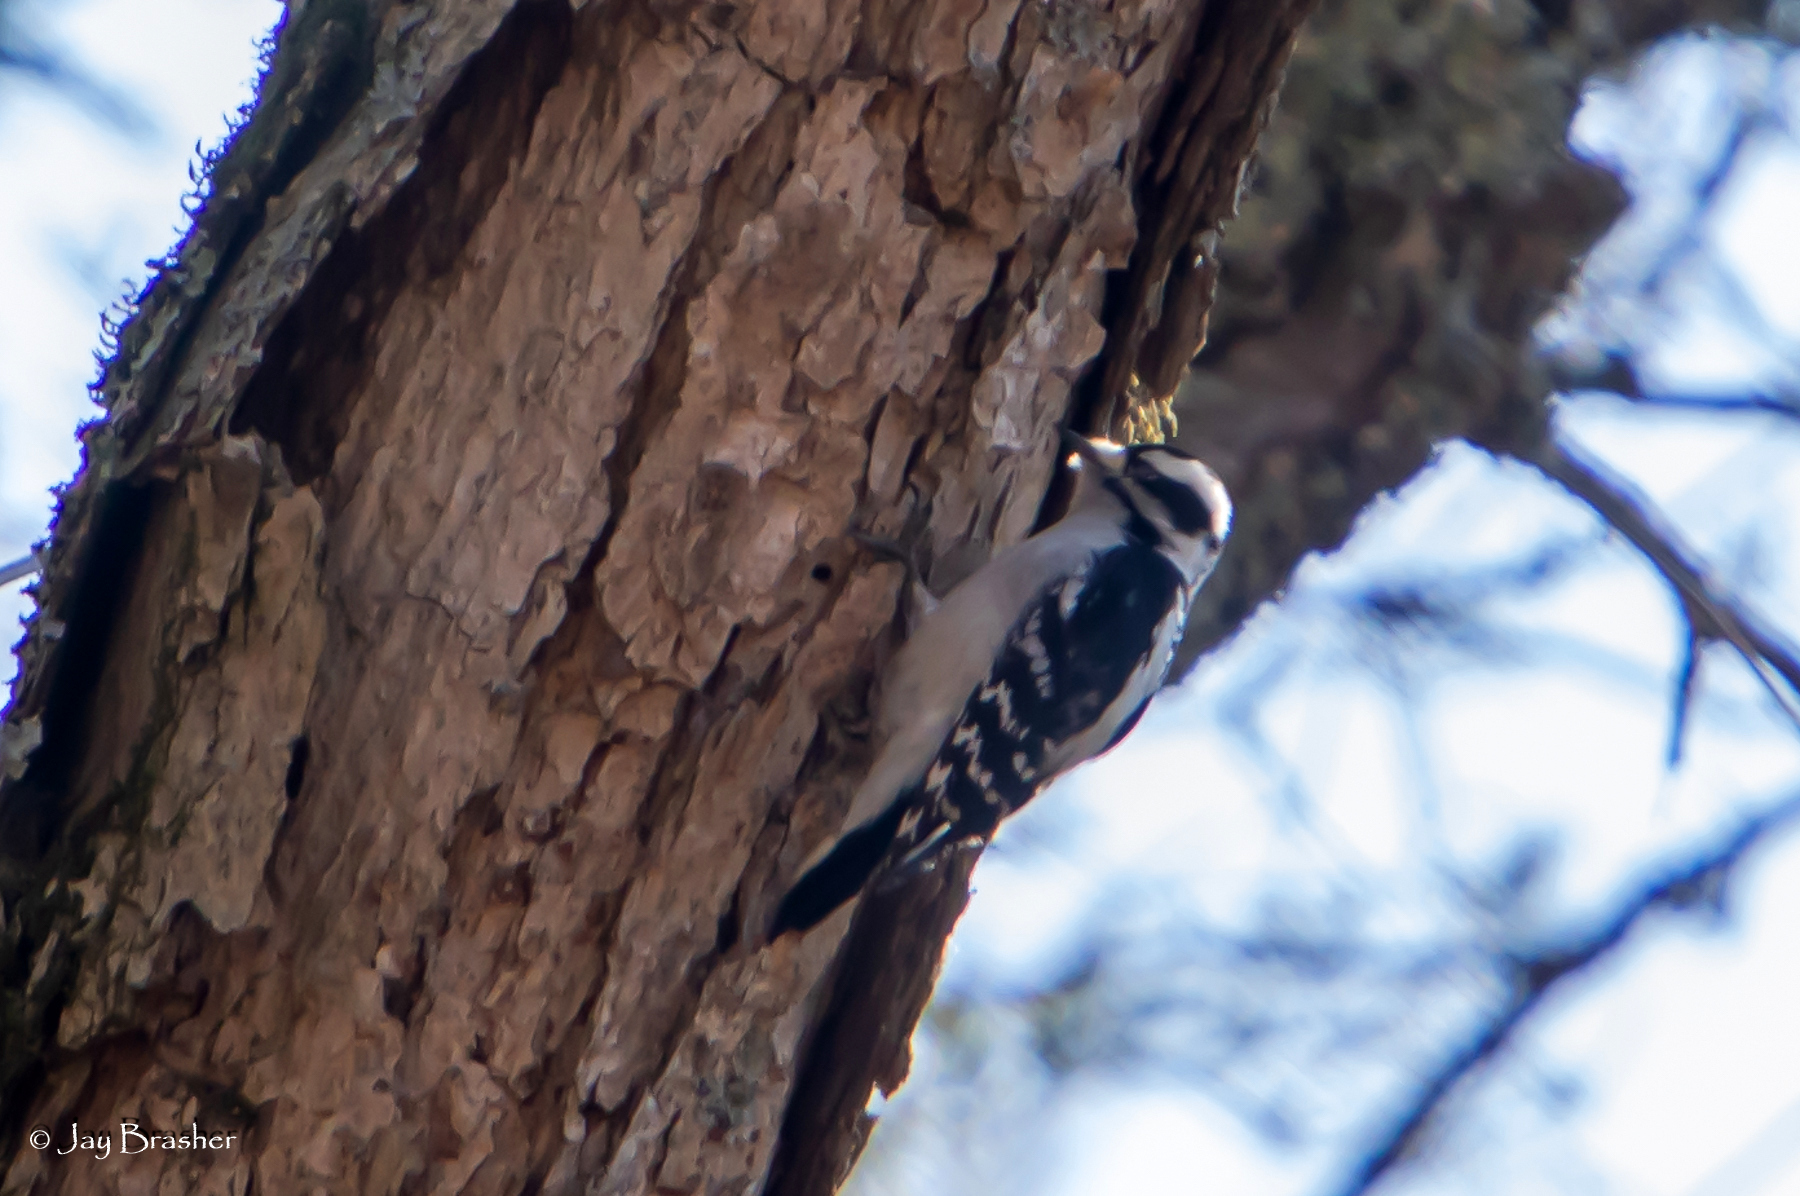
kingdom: Animalia
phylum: Chordata
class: Aves
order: Piciformes
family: Picidae
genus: Dryobates
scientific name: Dryobates pubescens
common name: Downy woodpecker
